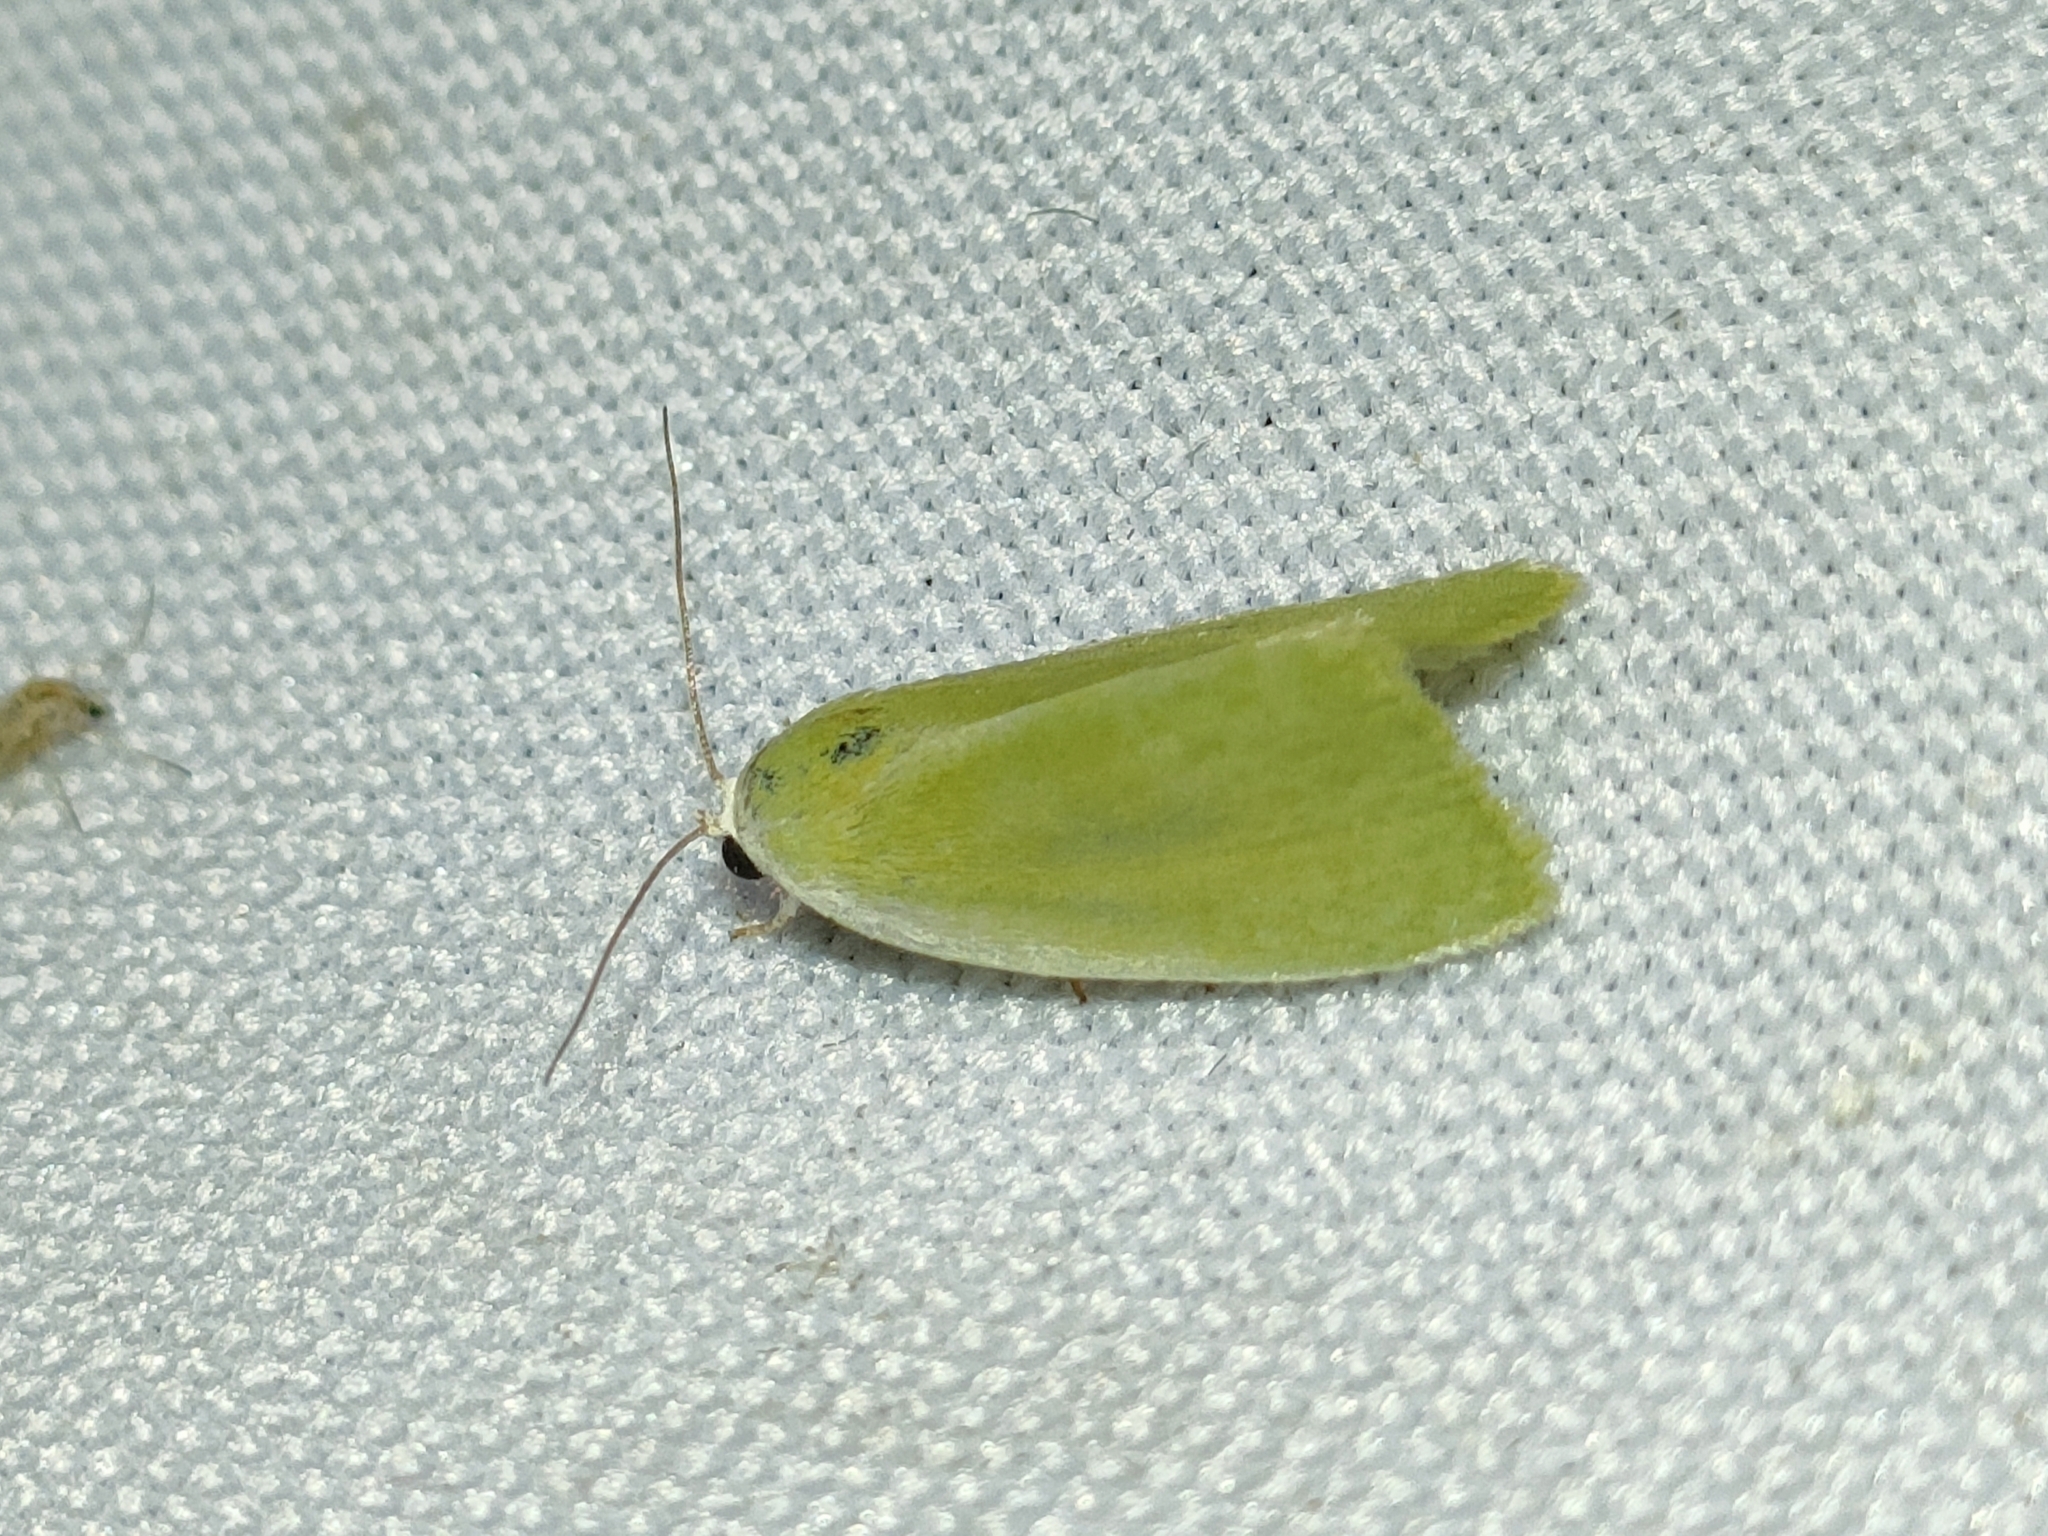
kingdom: Animalia
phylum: Arthropoda
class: Insecta
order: Lepidoptera
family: Nolidae
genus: Earias
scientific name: Earias clorana
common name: Cream-bordered green pea
